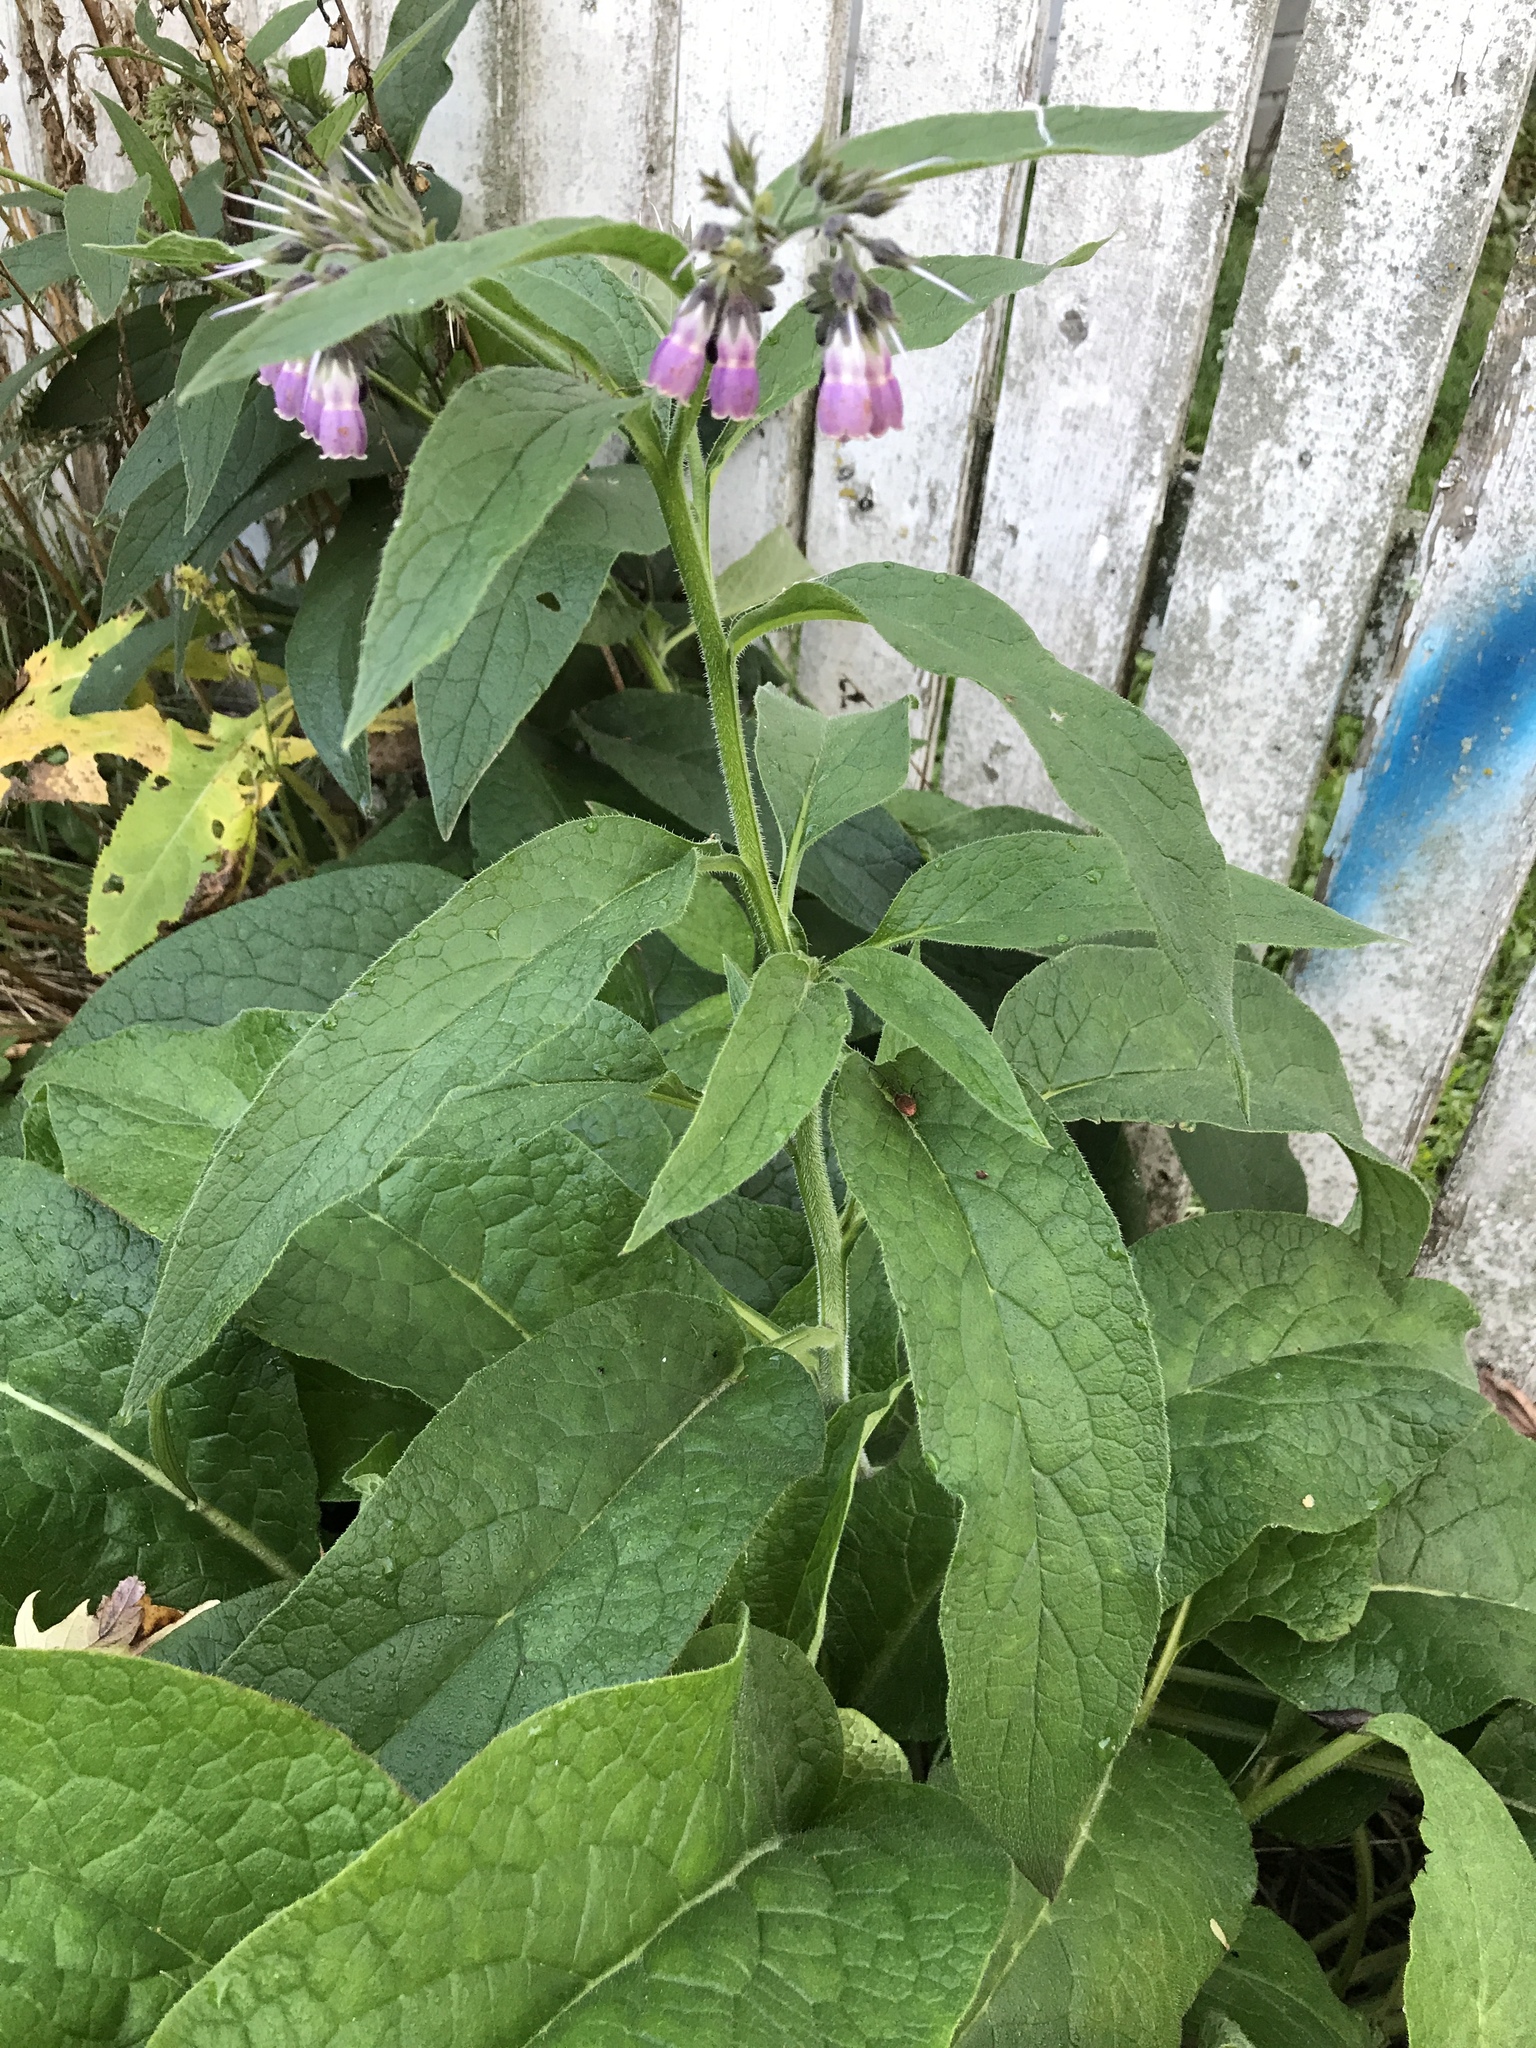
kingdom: Plantae
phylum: Tracheophyta
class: Magnoliopsida
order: Boraginales
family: Boraginaceae
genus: Symphytum
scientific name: Symphytum officinale
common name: Common comfrey
